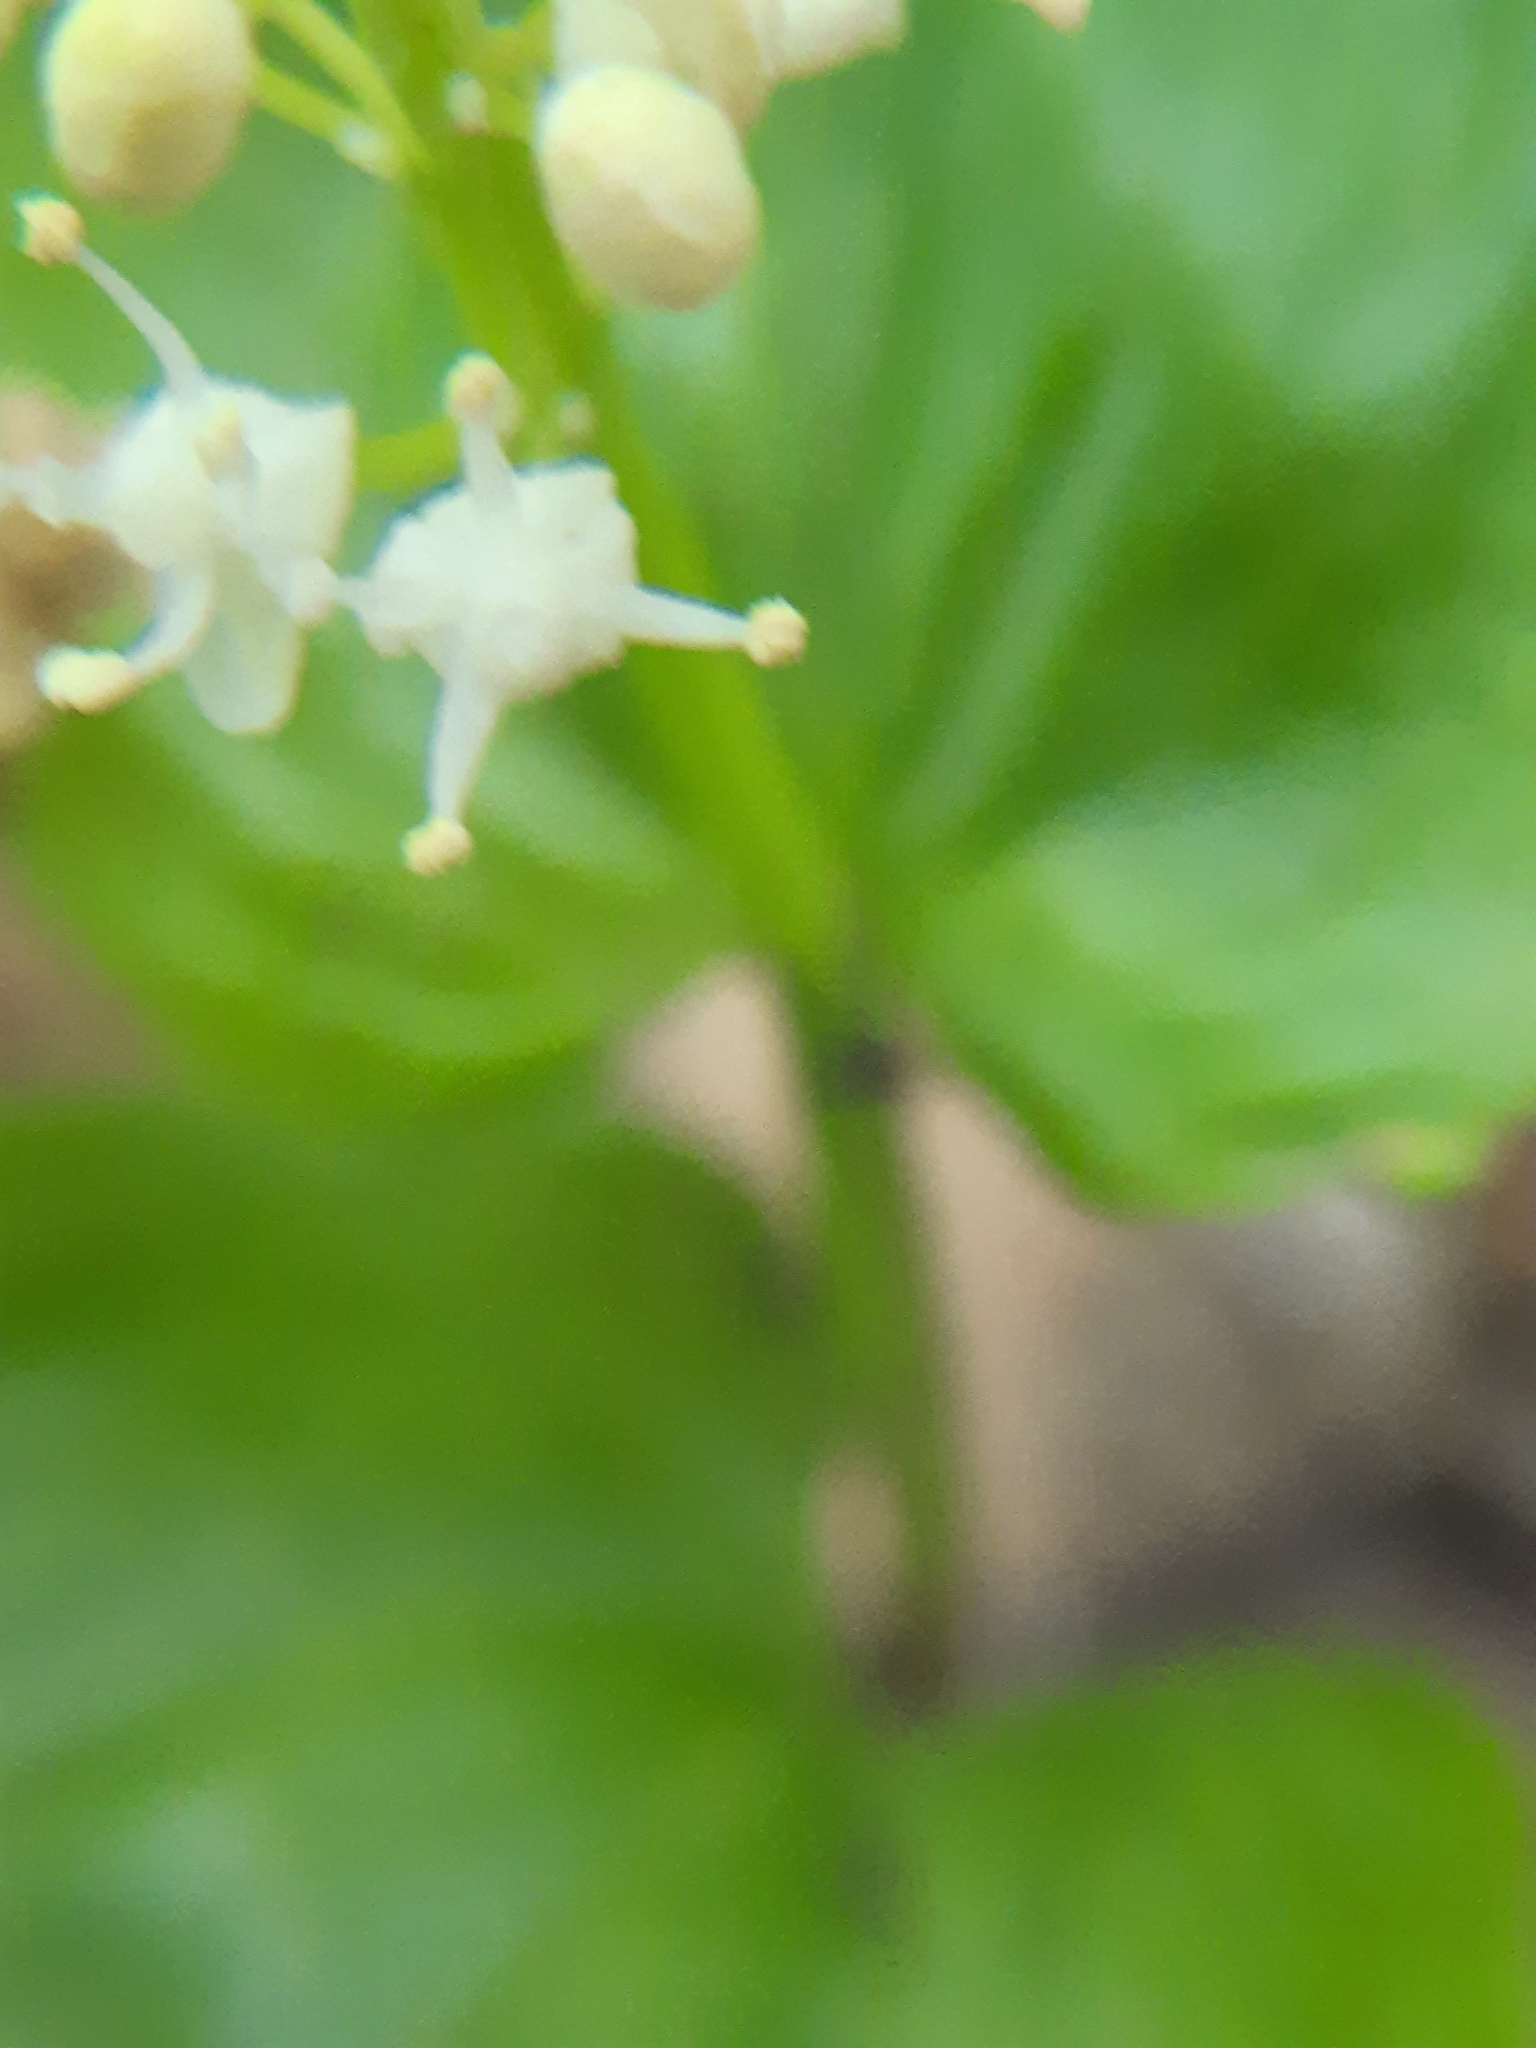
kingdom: Plantae
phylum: Tracheophyta
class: Liliopsida
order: Asparagales
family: Asparagaceae
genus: Maianthemum
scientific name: Maianthemum canadense
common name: False lily-of-the-valley
